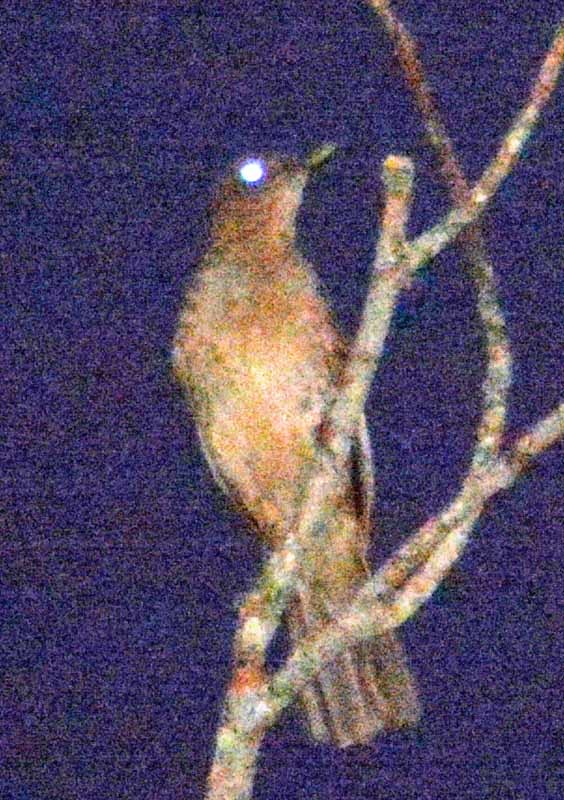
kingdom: Animalia
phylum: Chordata
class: Aves
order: Passeriformes
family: Turdidae
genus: Turdus
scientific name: Turdus grayi
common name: Clay-colored thrush
